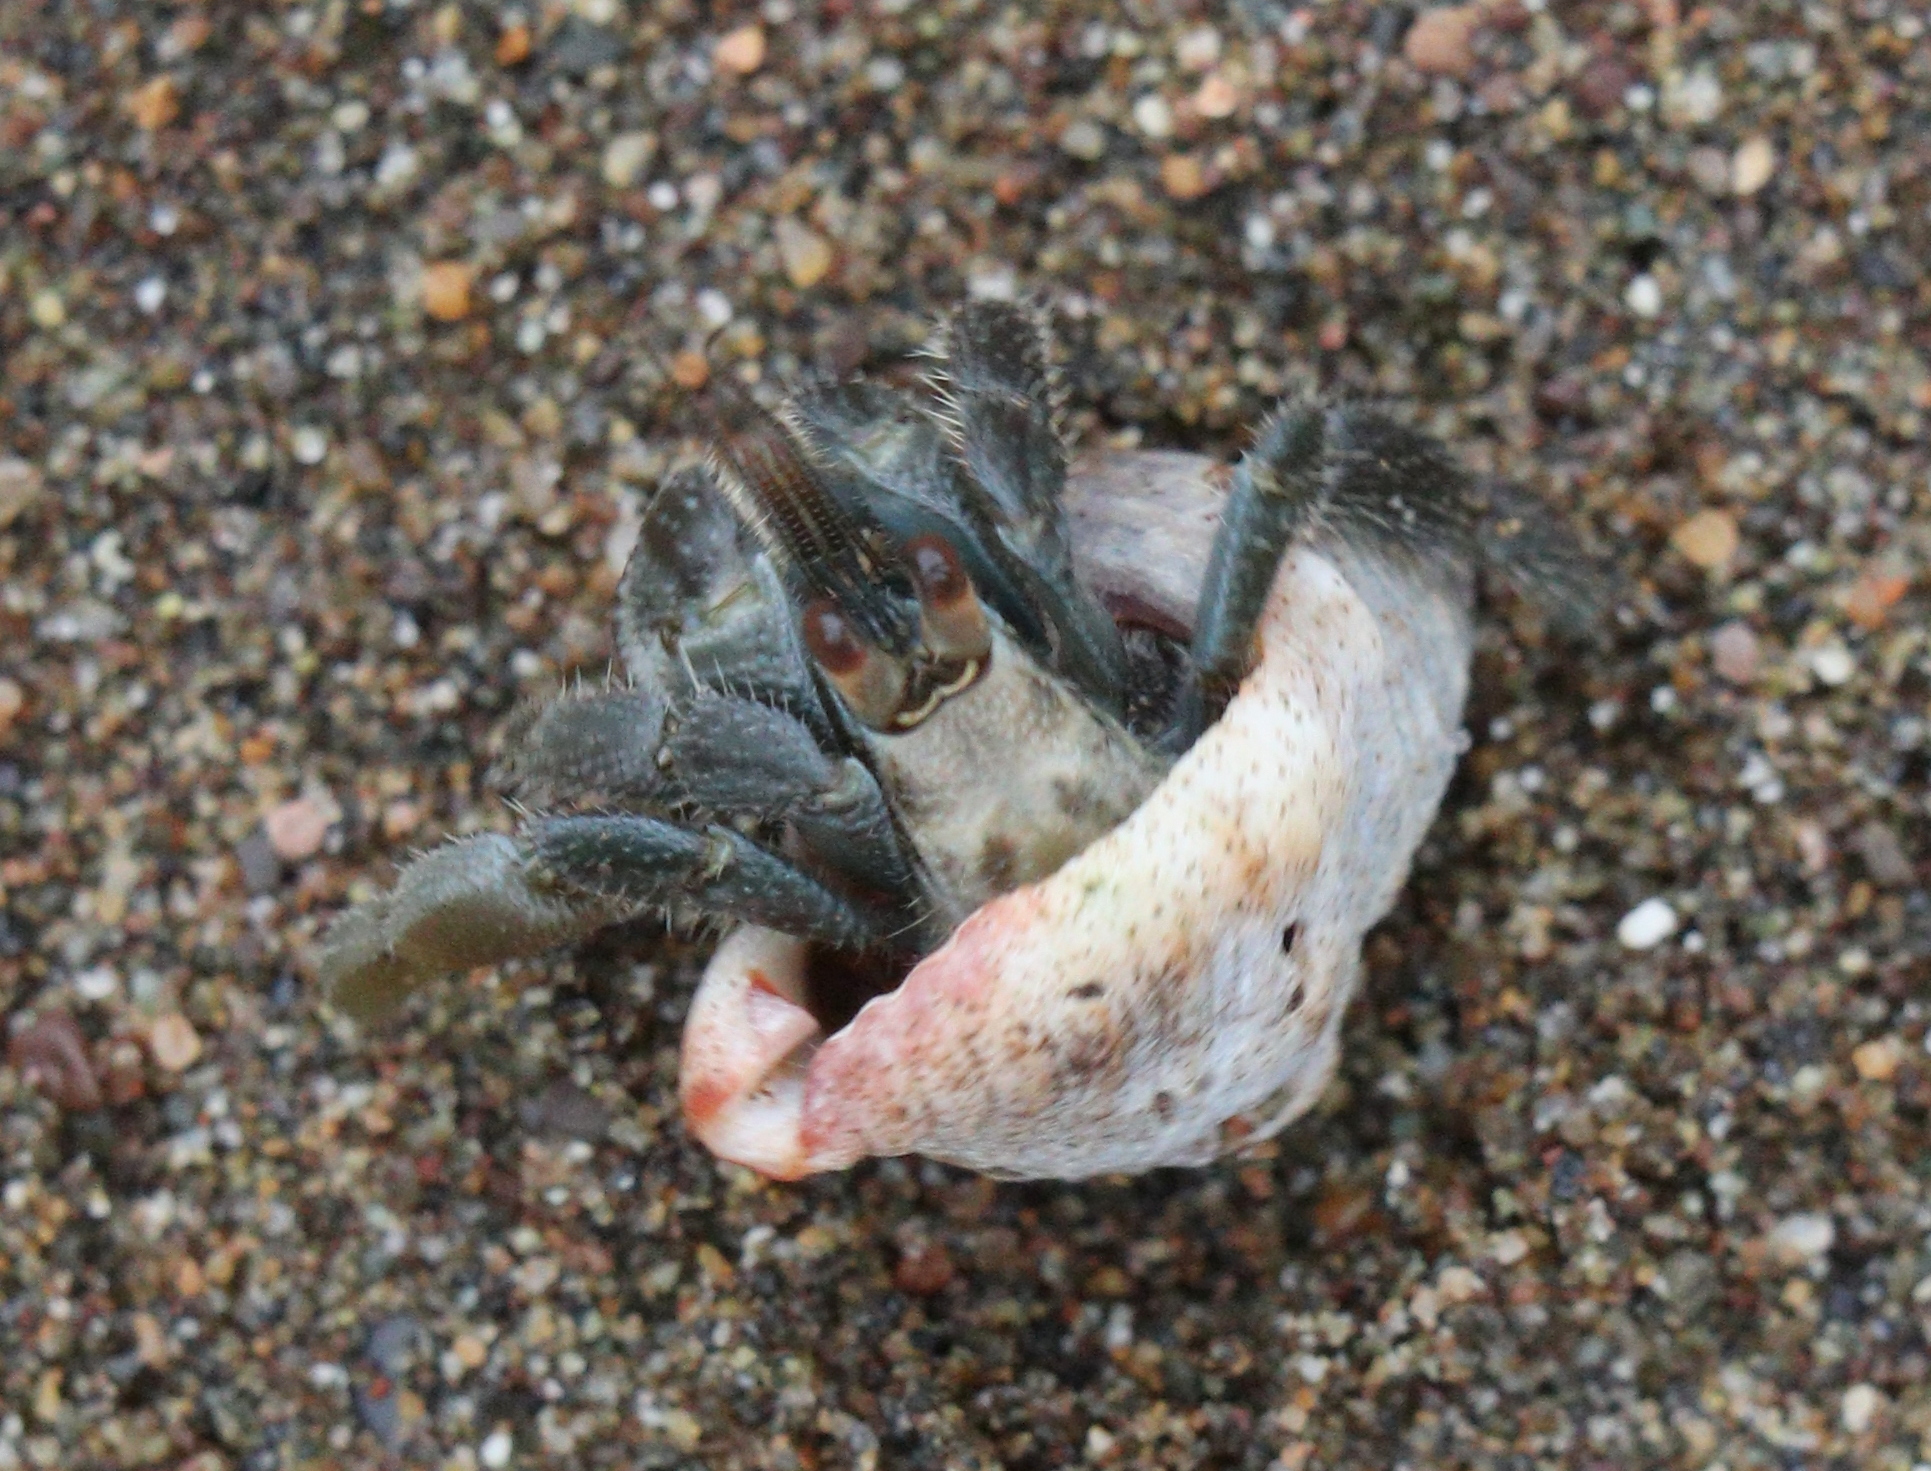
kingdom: Animalia
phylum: Arthropoda
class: Malacostraca
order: Decapoda
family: Coenobitidae
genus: Coenobita
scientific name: Coenobita compressus
